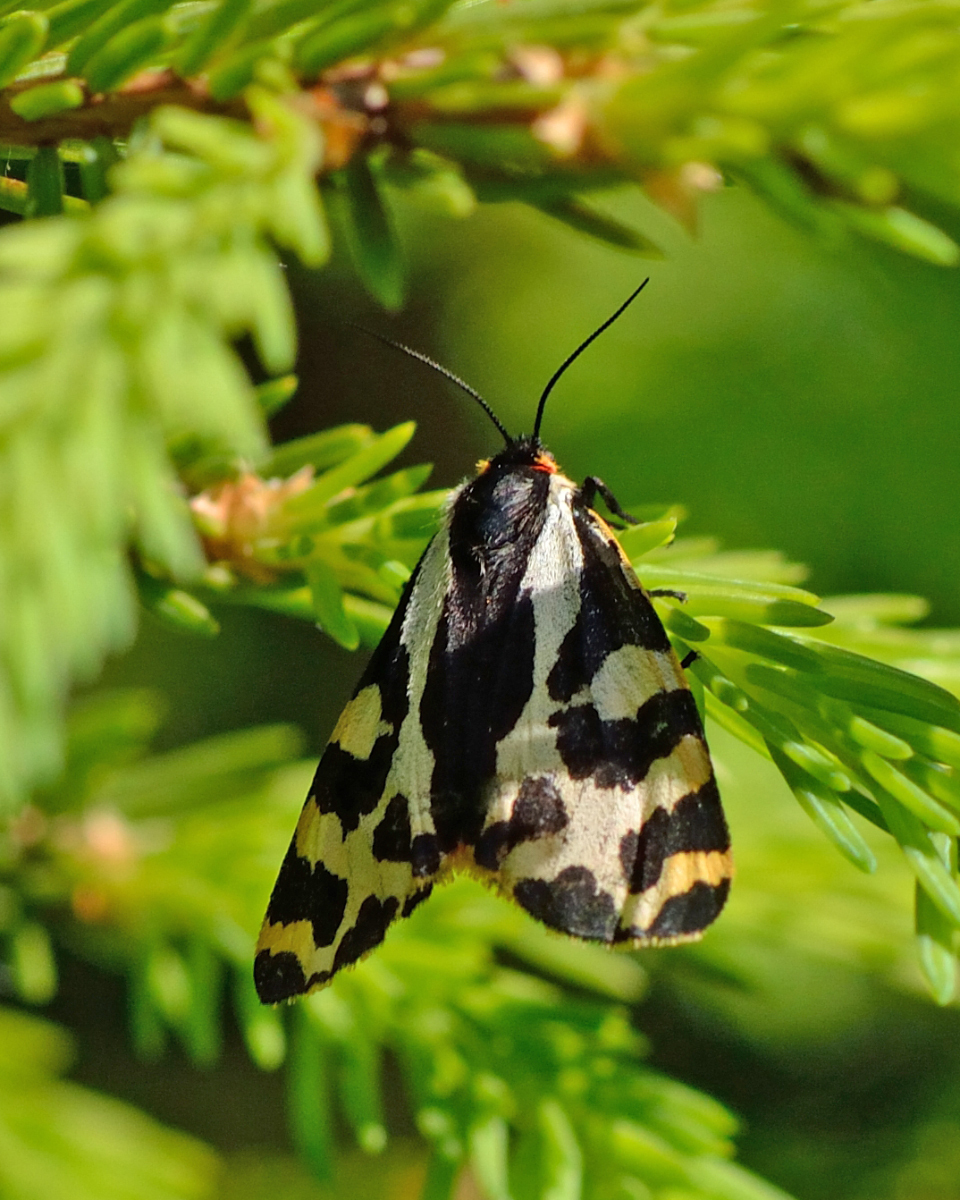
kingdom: Animalia
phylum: Arthropoda
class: Insecta
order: Lepidoptera
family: Erebidae
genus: Parasemia
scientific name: Parasemia plantaginis
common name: Wood tiger
